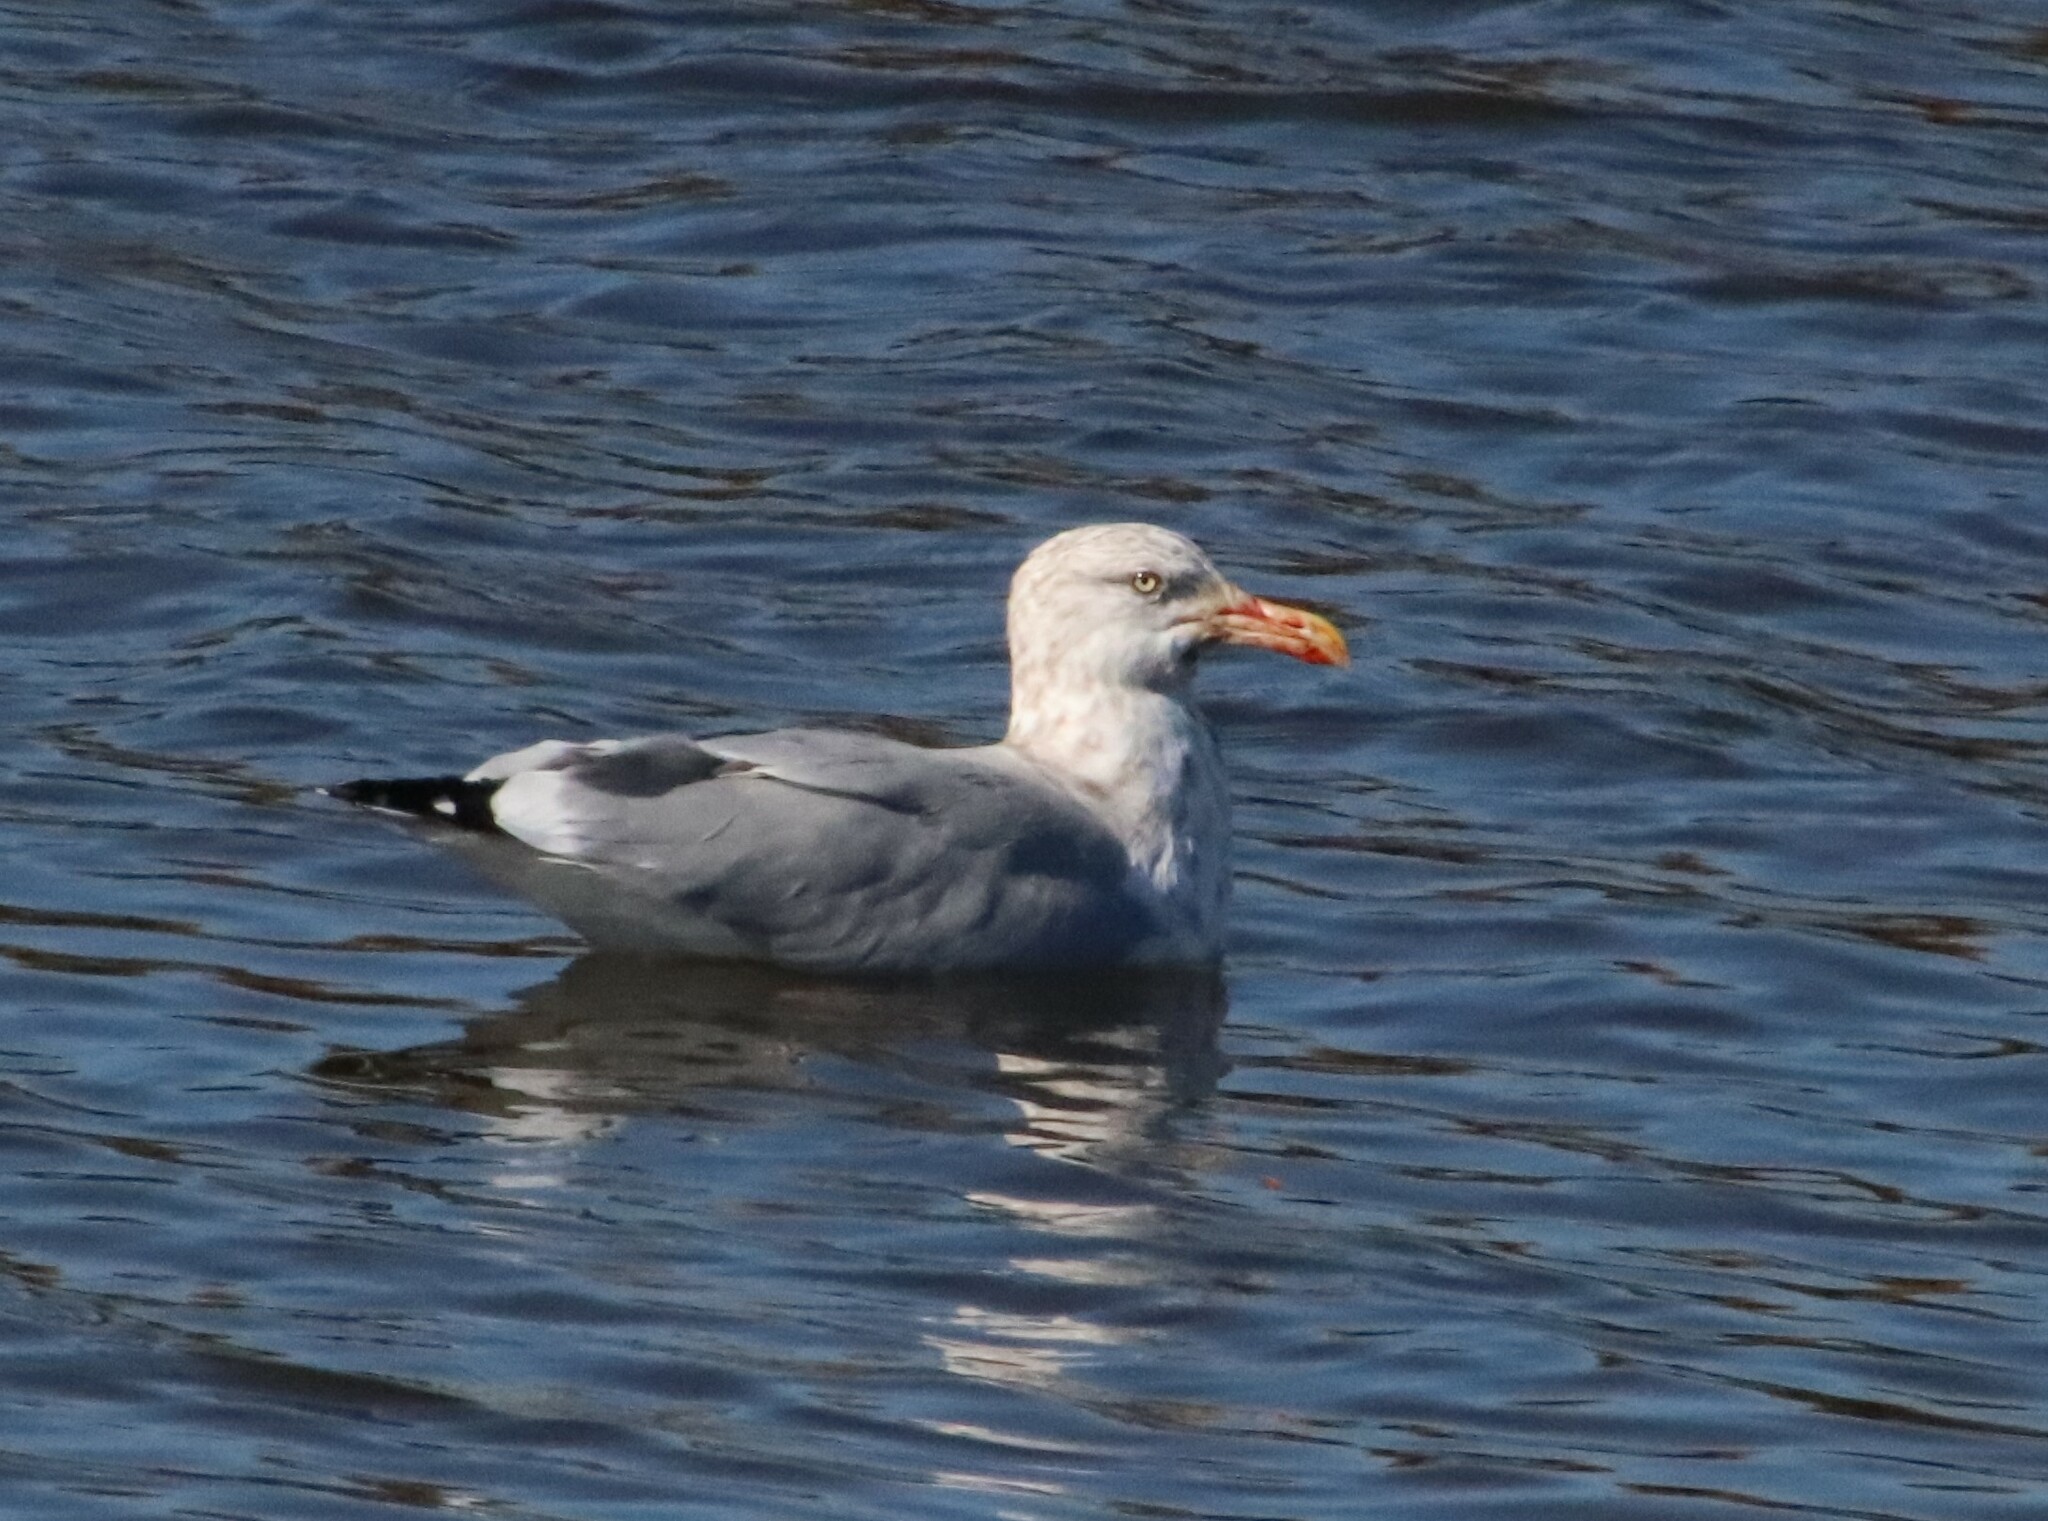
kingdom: Animalia
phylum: Chordata
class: Aves
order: Charadriiformes
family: Laridae
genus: Larus
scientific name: Larus argentatus
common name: Herring gull
